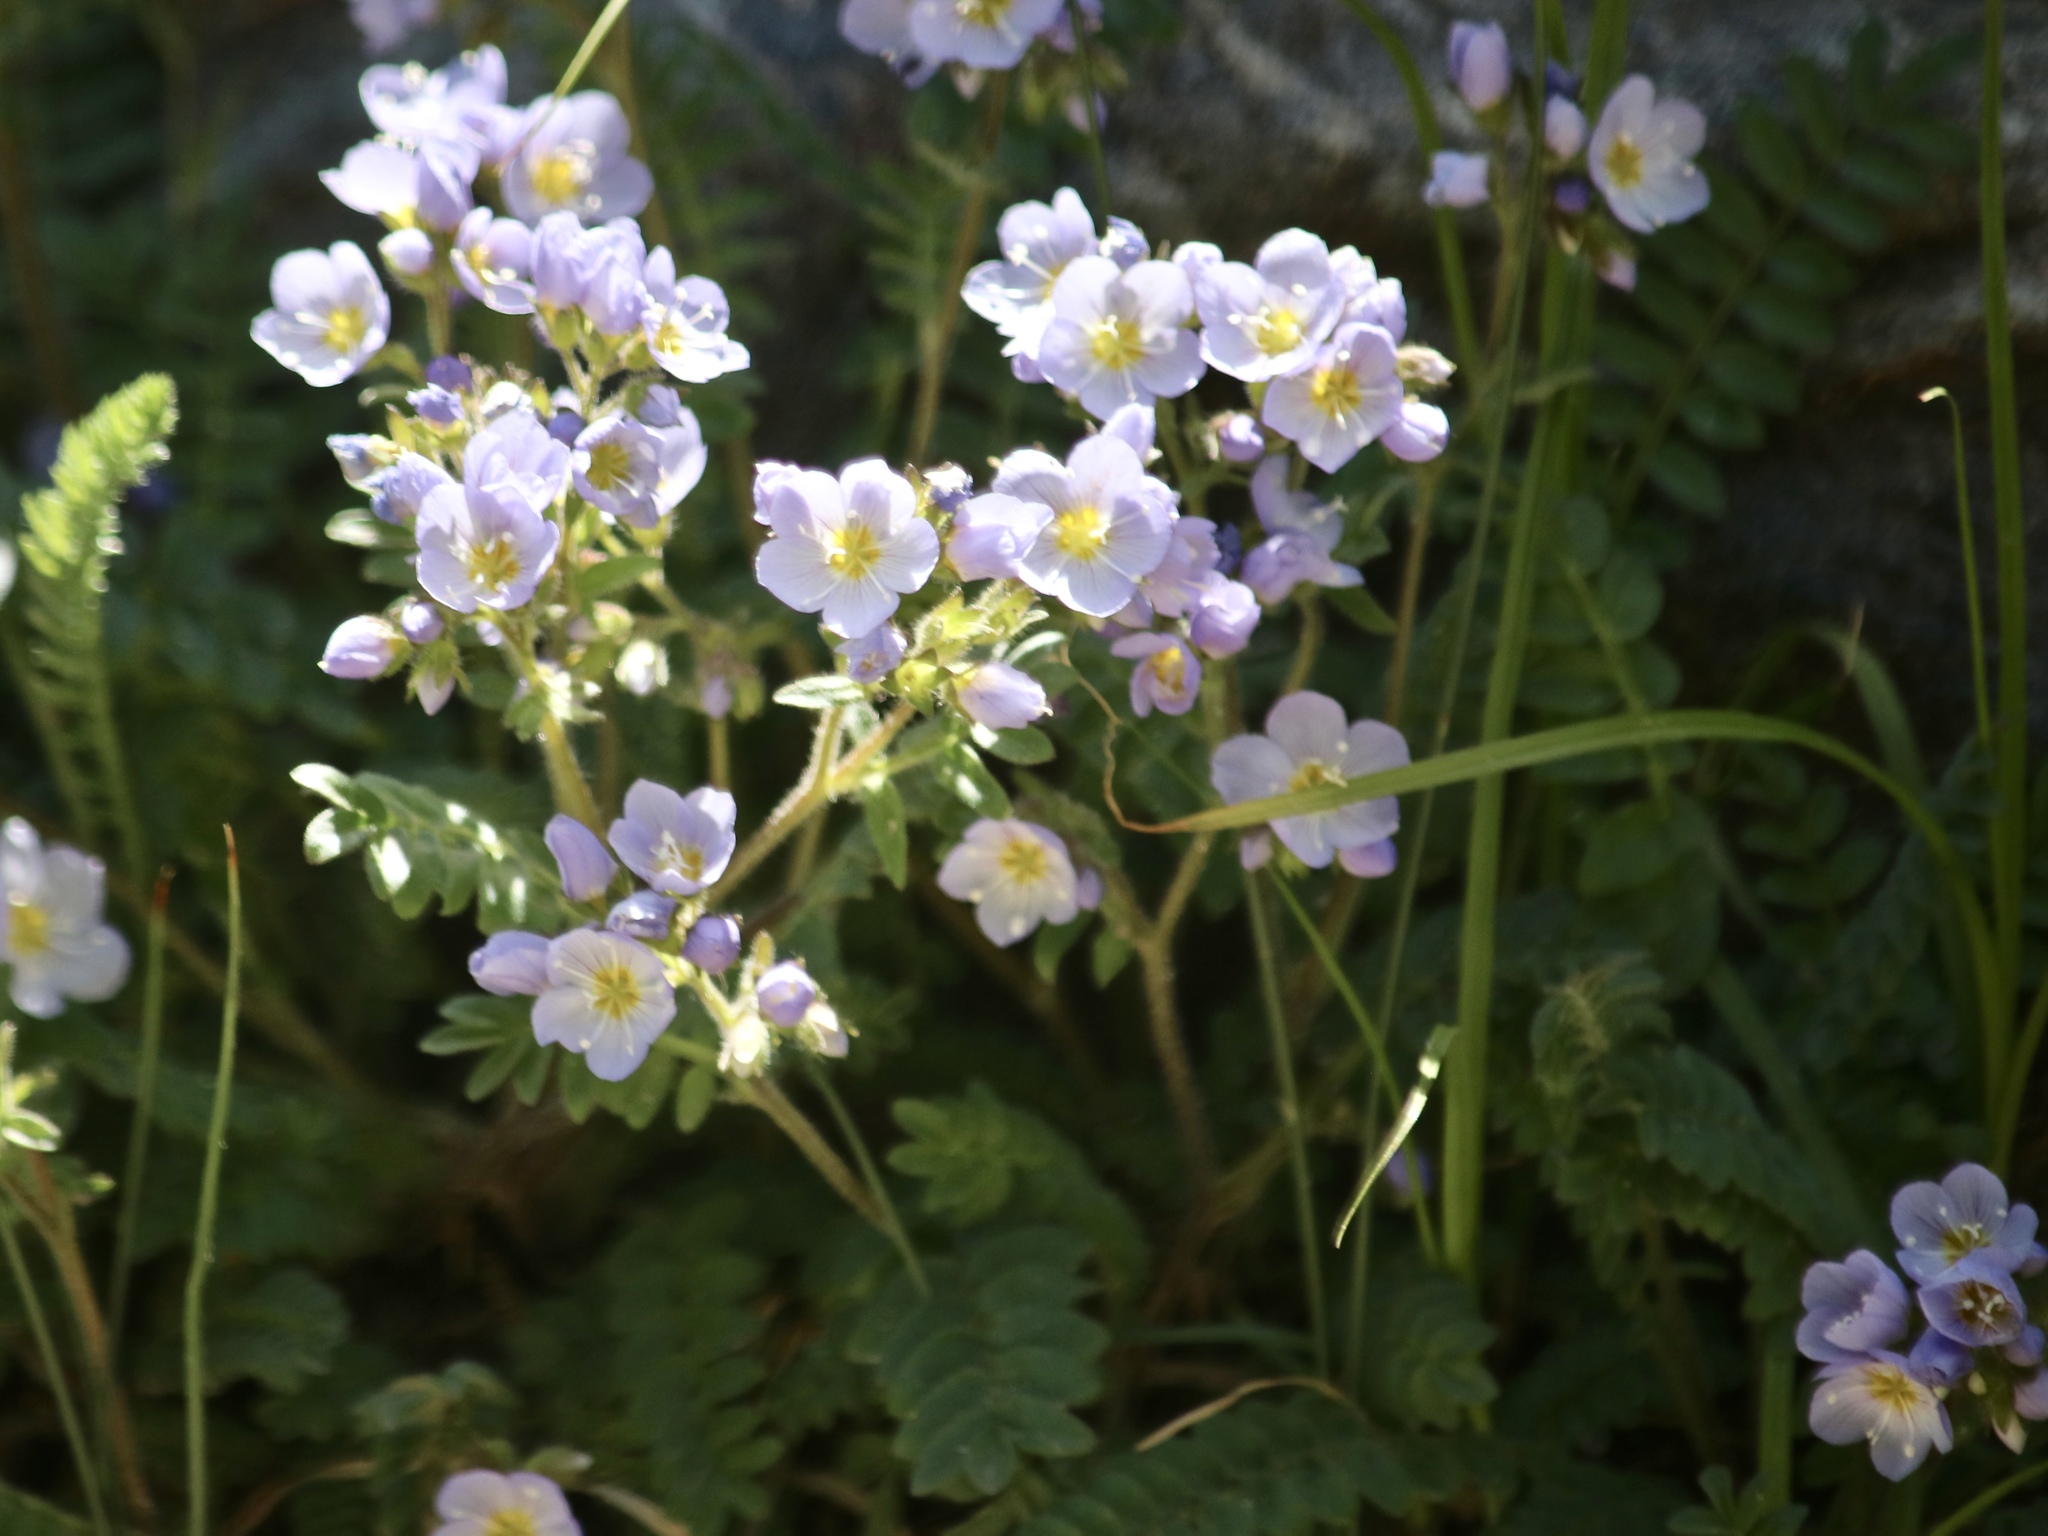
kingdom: Plantae
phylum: Tracheophyta
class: Magnoliopsida
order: Ericales
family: Polemoniaceae
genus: Polemonium
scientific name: Polemonium pulcherrimum
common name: Short jacob's-ladder
